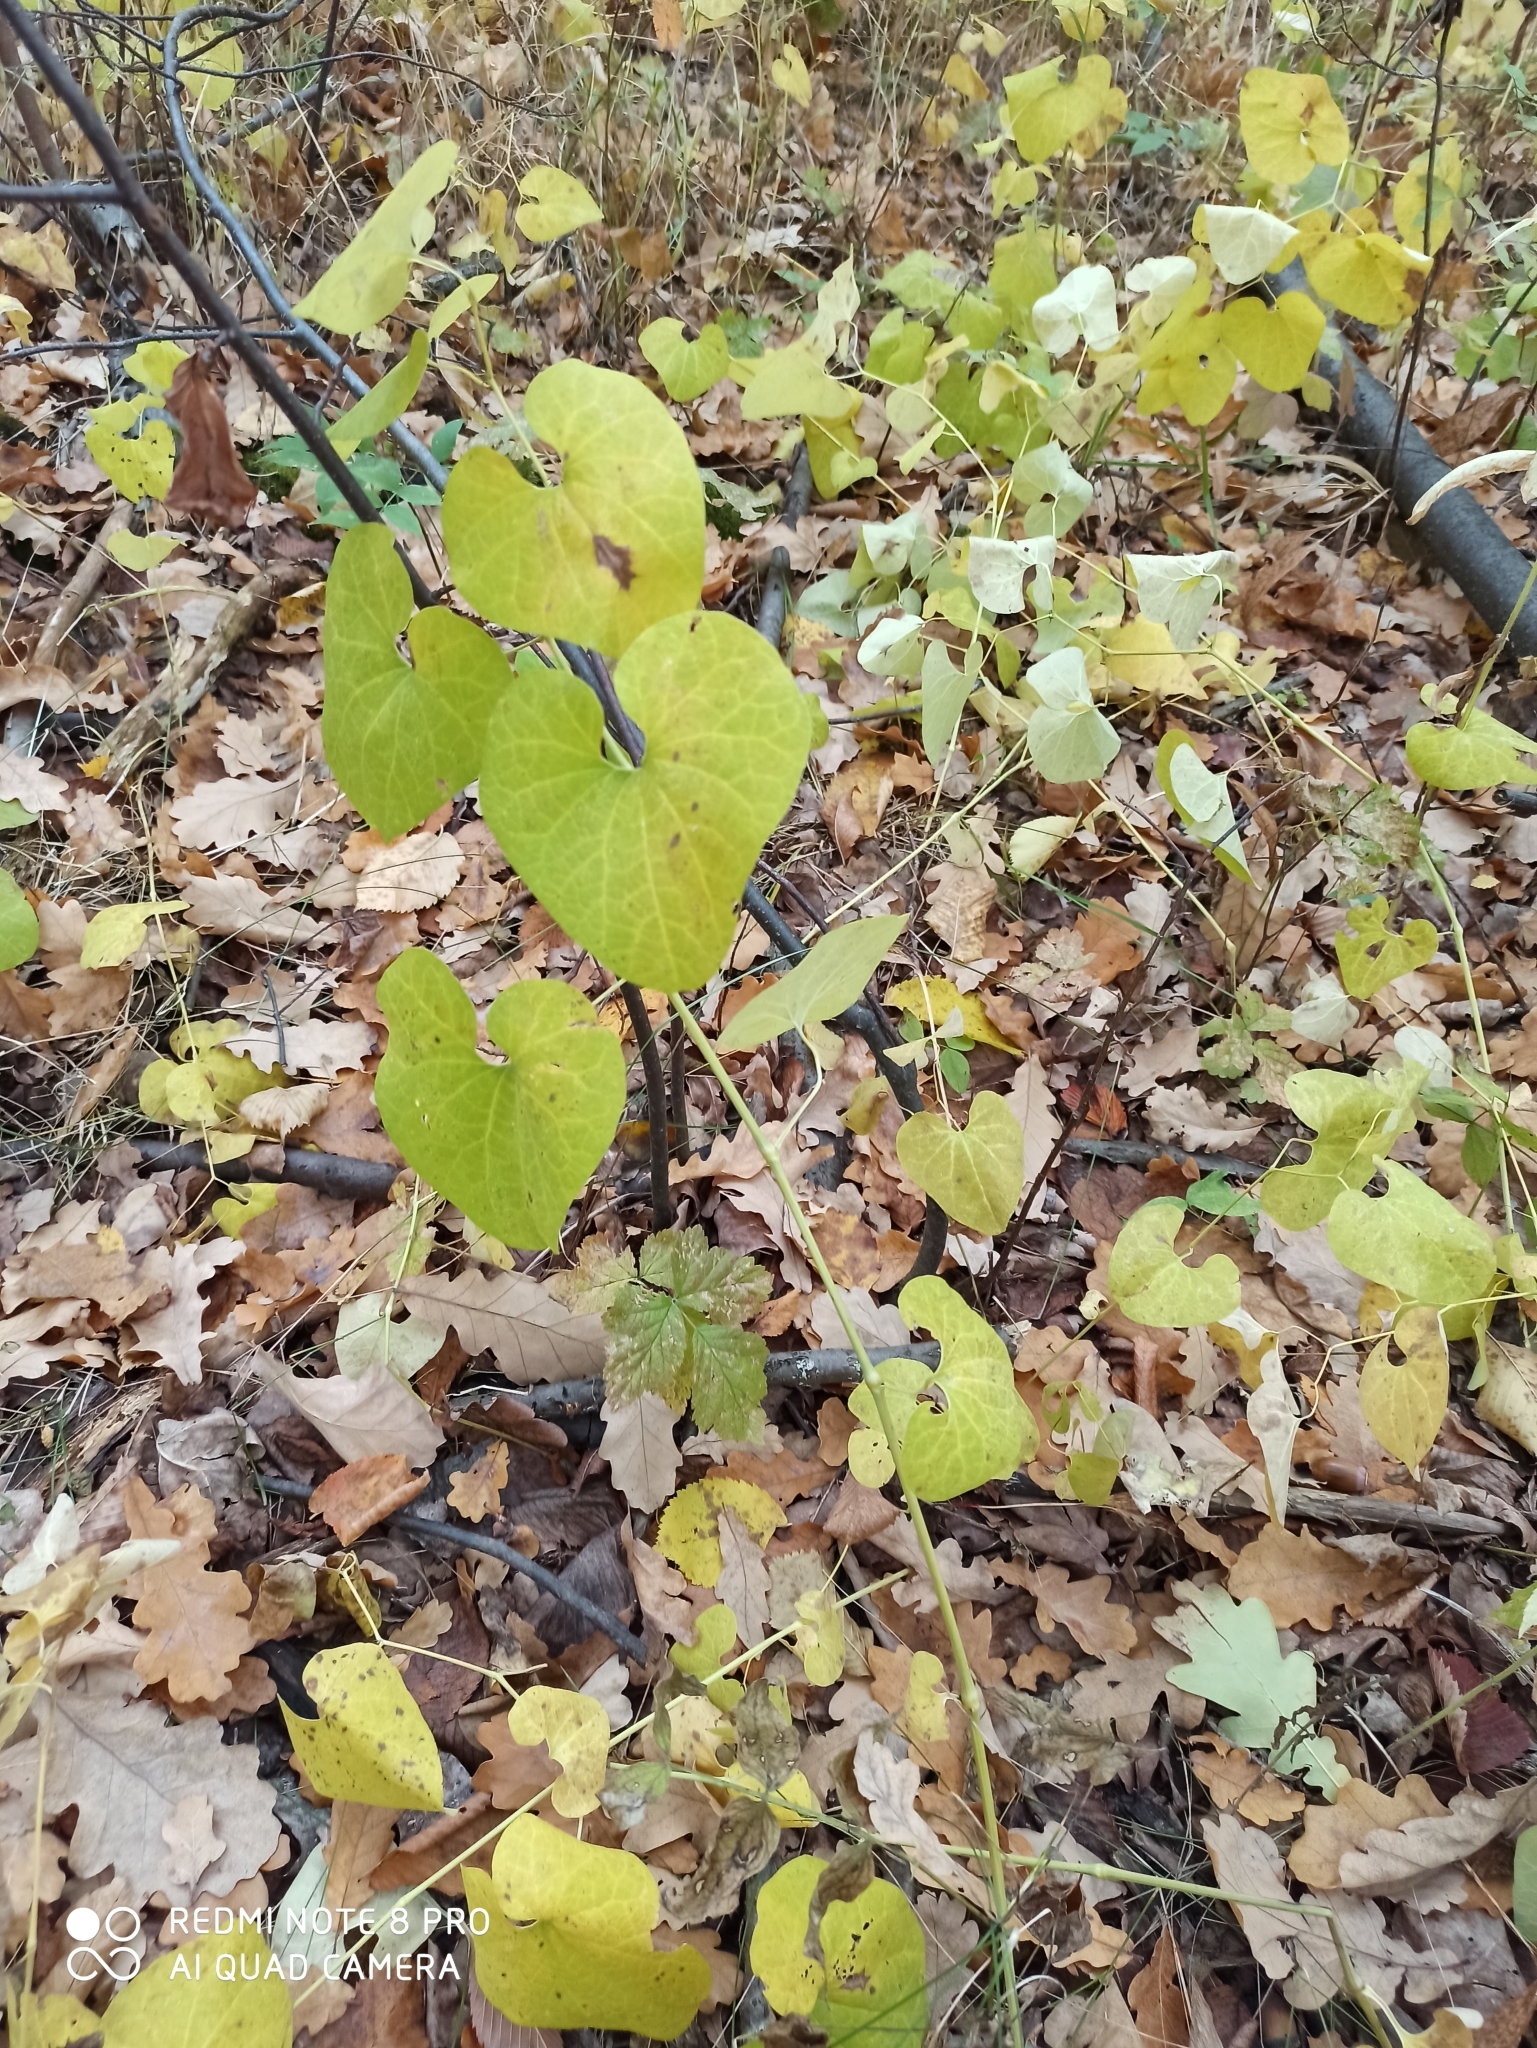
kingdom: Plantae
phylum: Tracheophyta
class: Magnoliopsida
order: Piperales
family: Aristolochiaceae
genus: Aristolochia
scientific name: Aristolochia clematitis
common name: Birthwort
